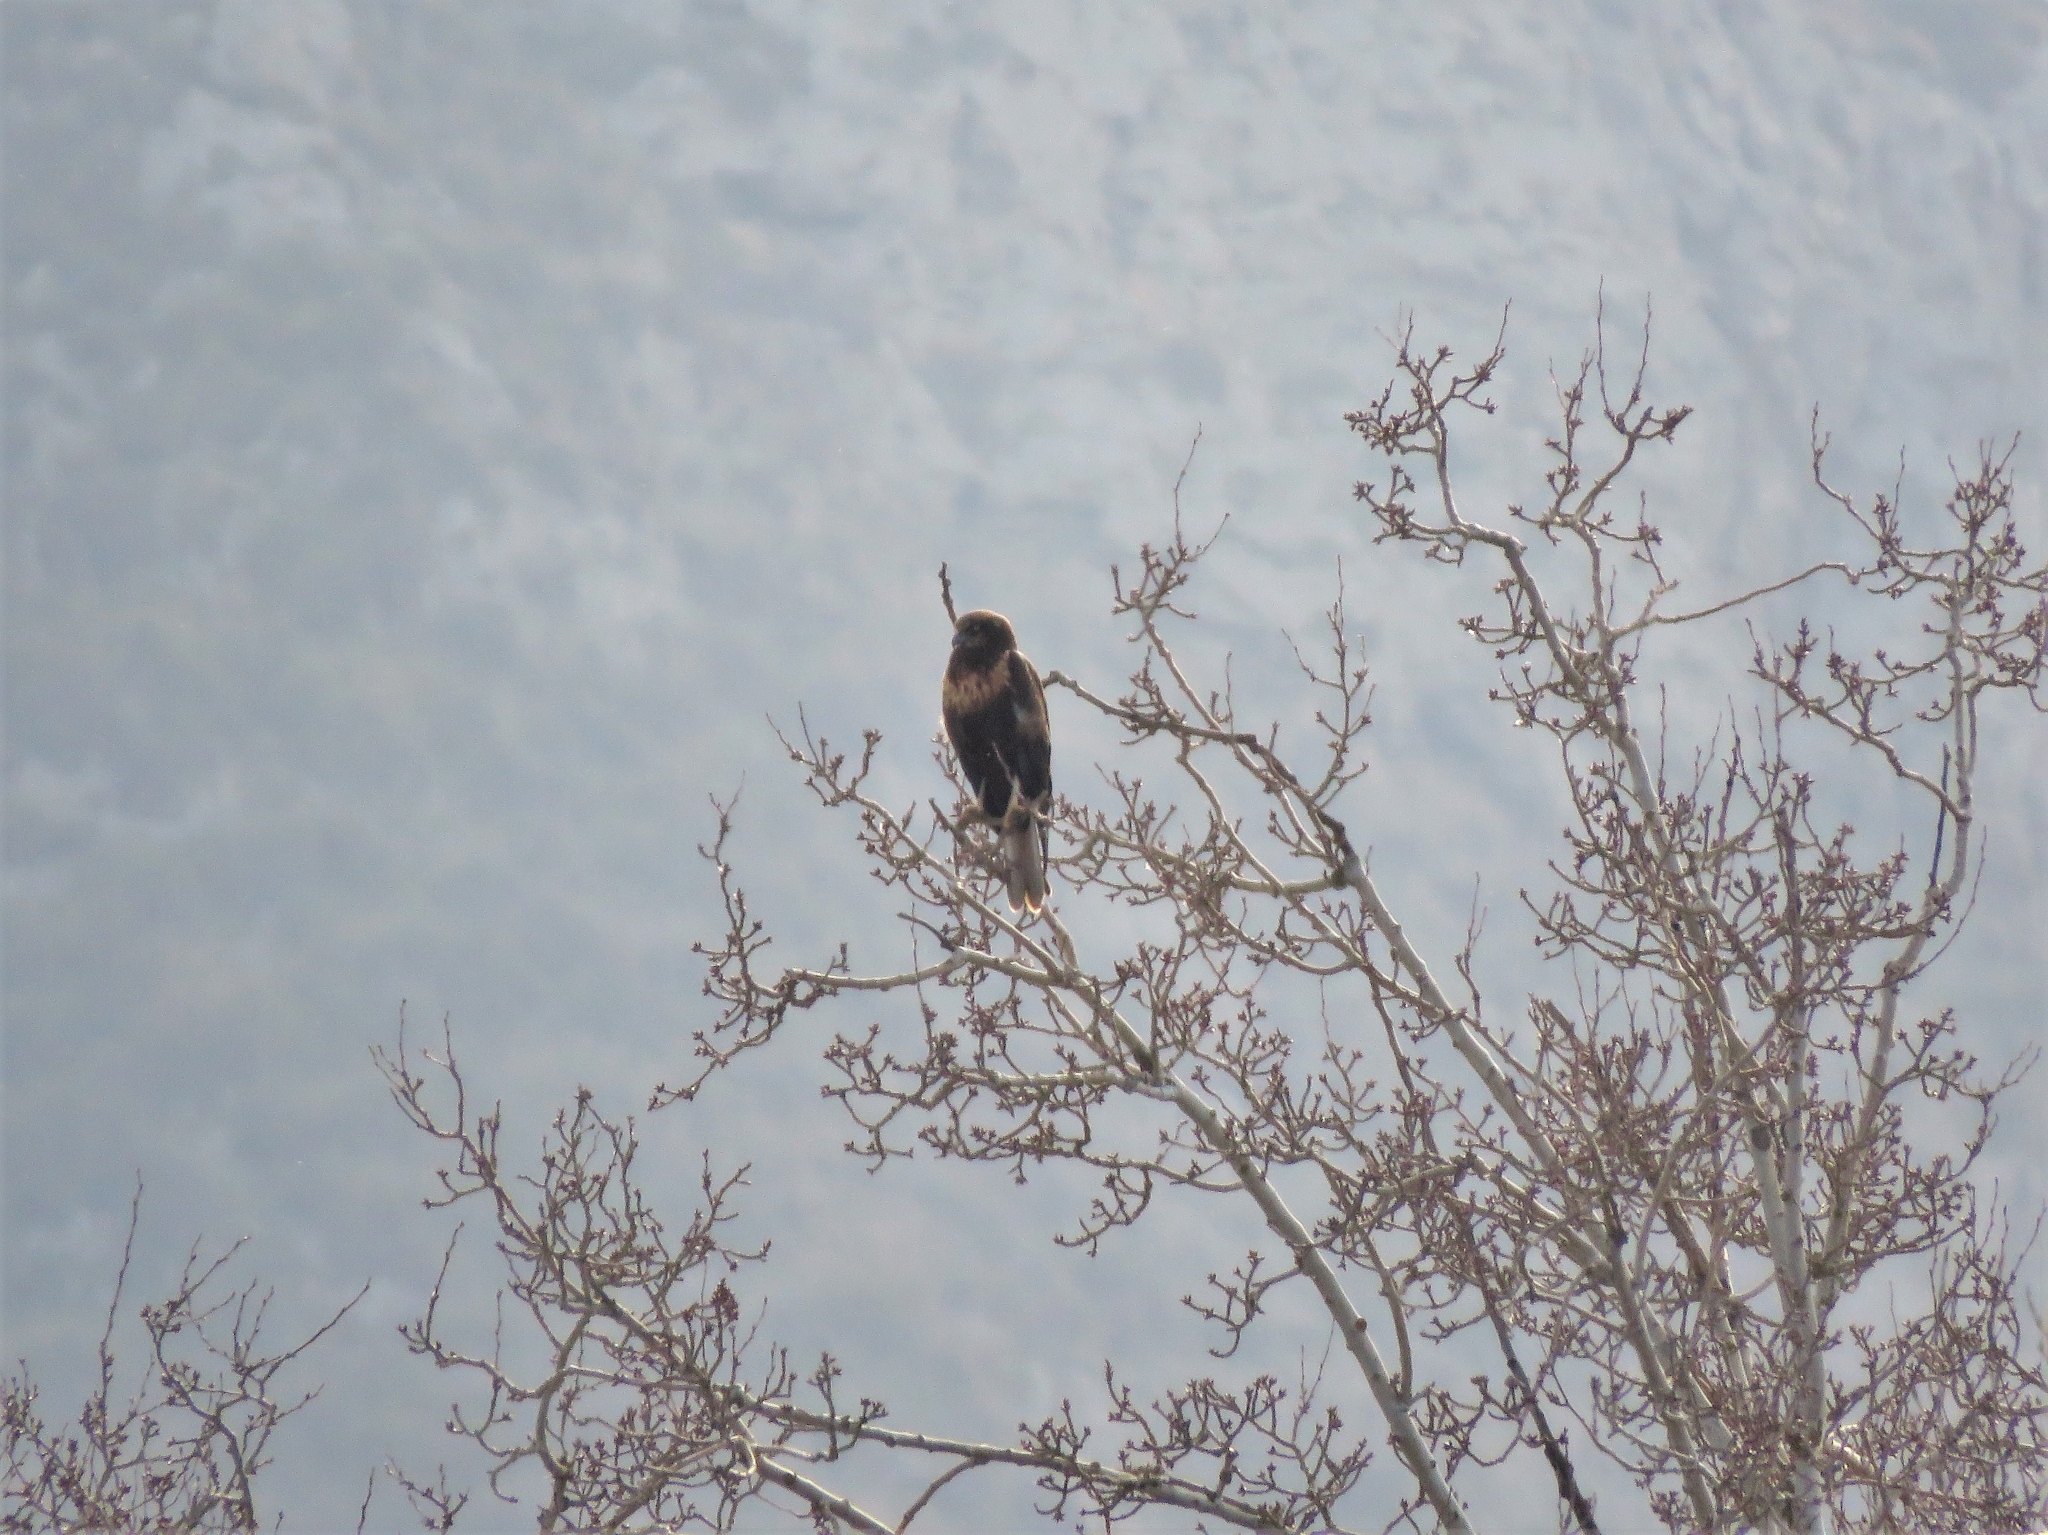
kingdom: Animalia
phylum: Chordata
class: Aves
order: Accipitriformes
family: Accipitridae
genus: Circus
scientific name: Circus aeruginosus
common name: Western marsh harrier
